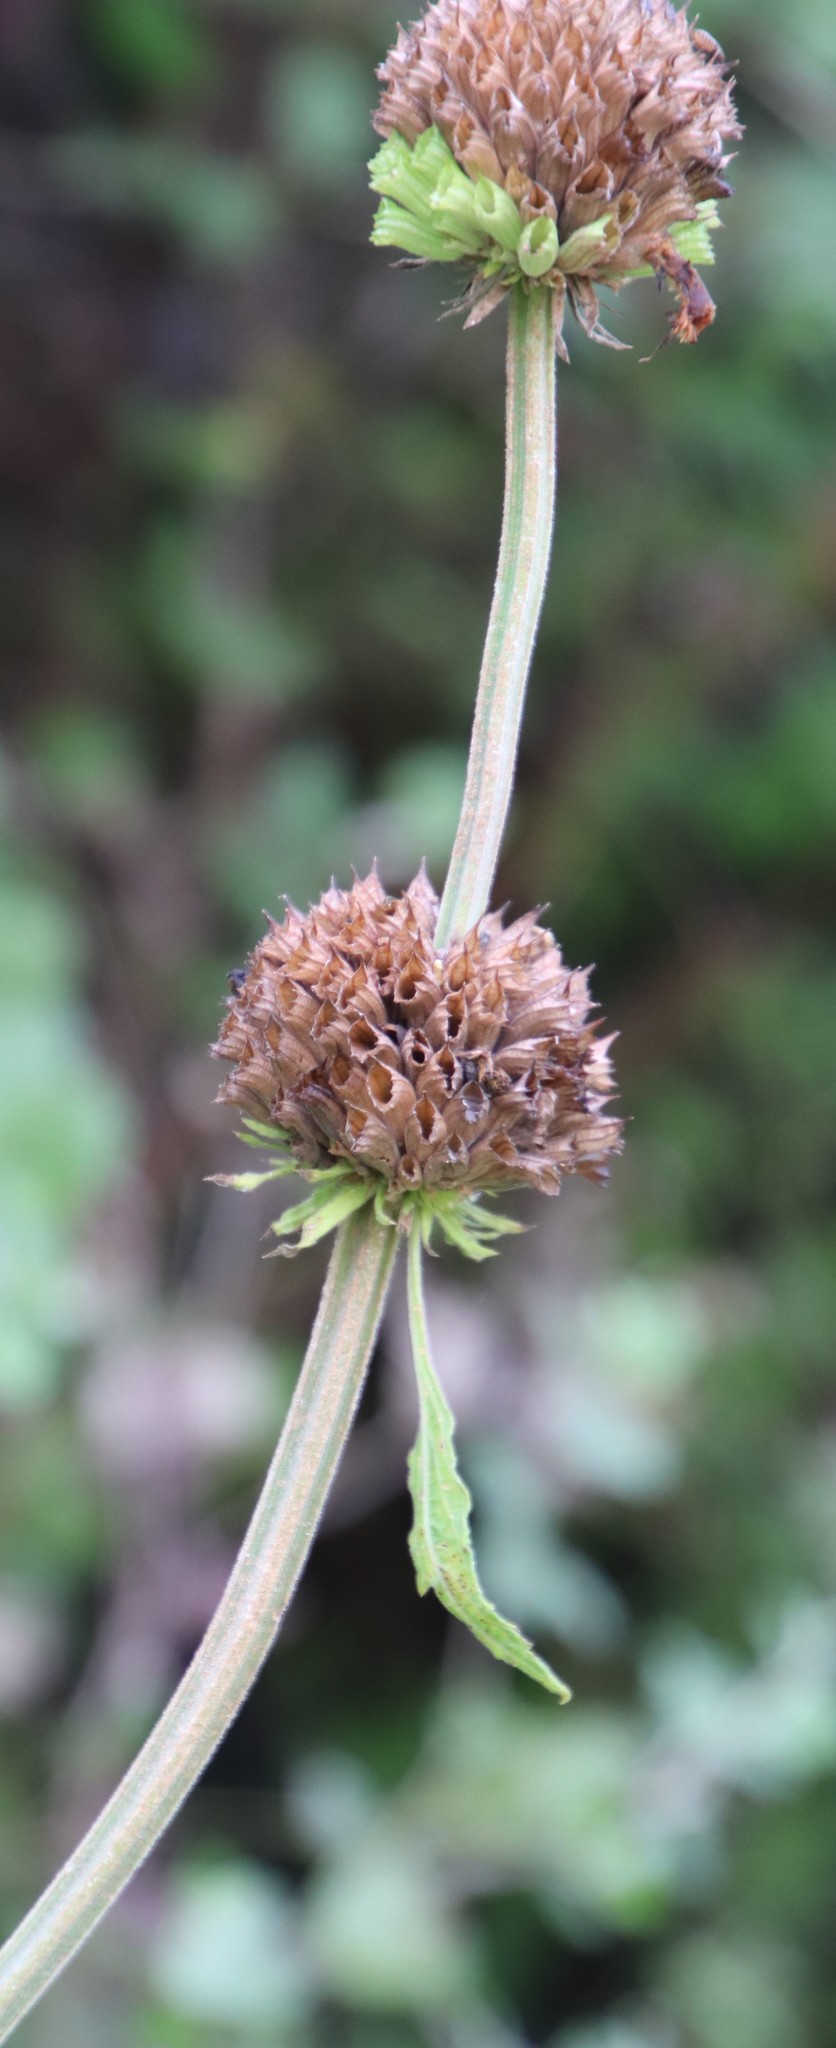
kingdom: Plantae
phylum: Tracheophyta
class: Magnoliopsida
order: Lamiales
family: Lamiaceae
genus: Leonotis
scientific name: Leonotis ocymifolia
